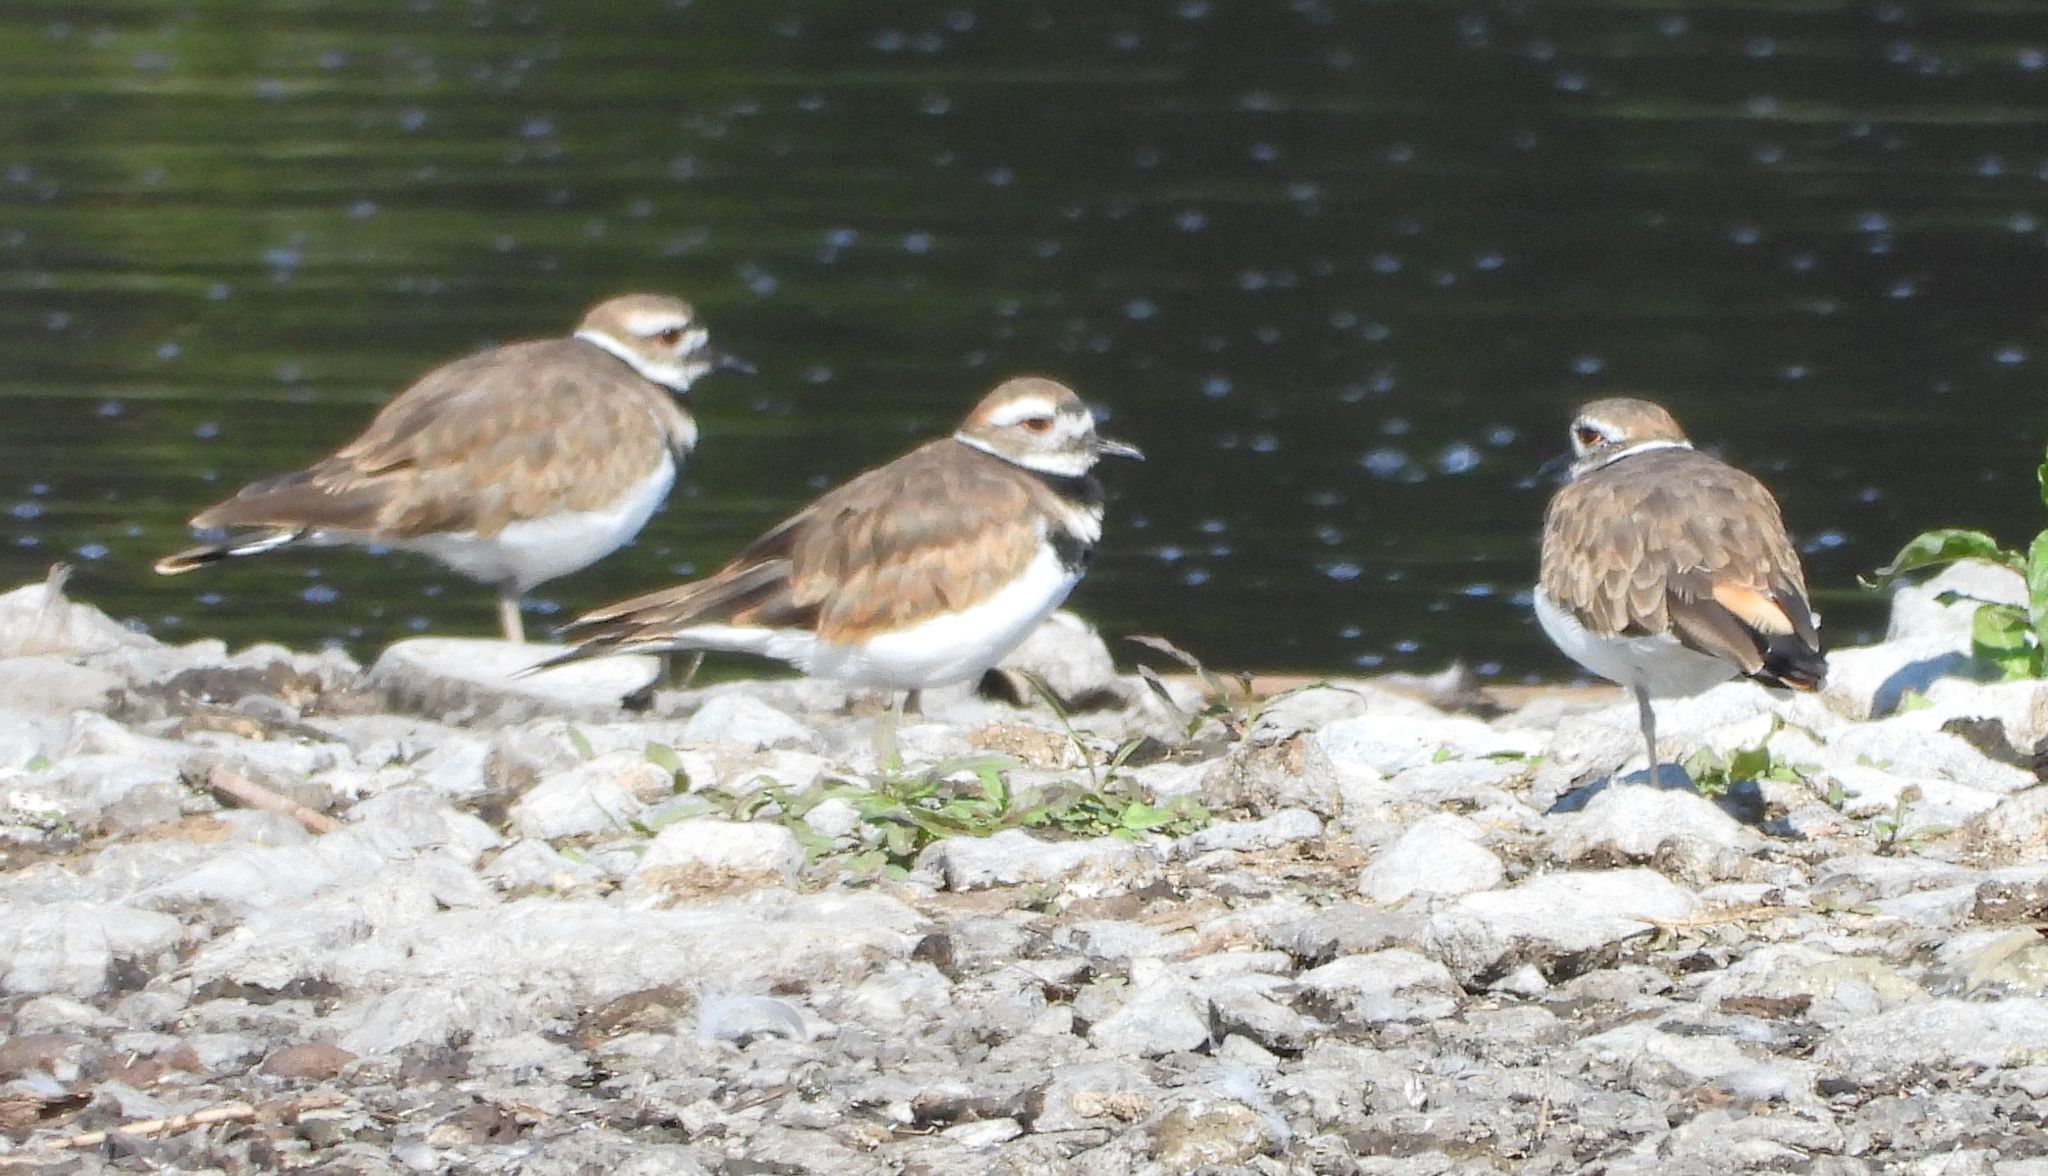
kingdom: Animalia
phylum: Chordata
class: Aves
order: Charadriiformes
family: Charadriidae
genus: Charadrius
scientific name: Charadrius vociferus
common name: Killdeer
